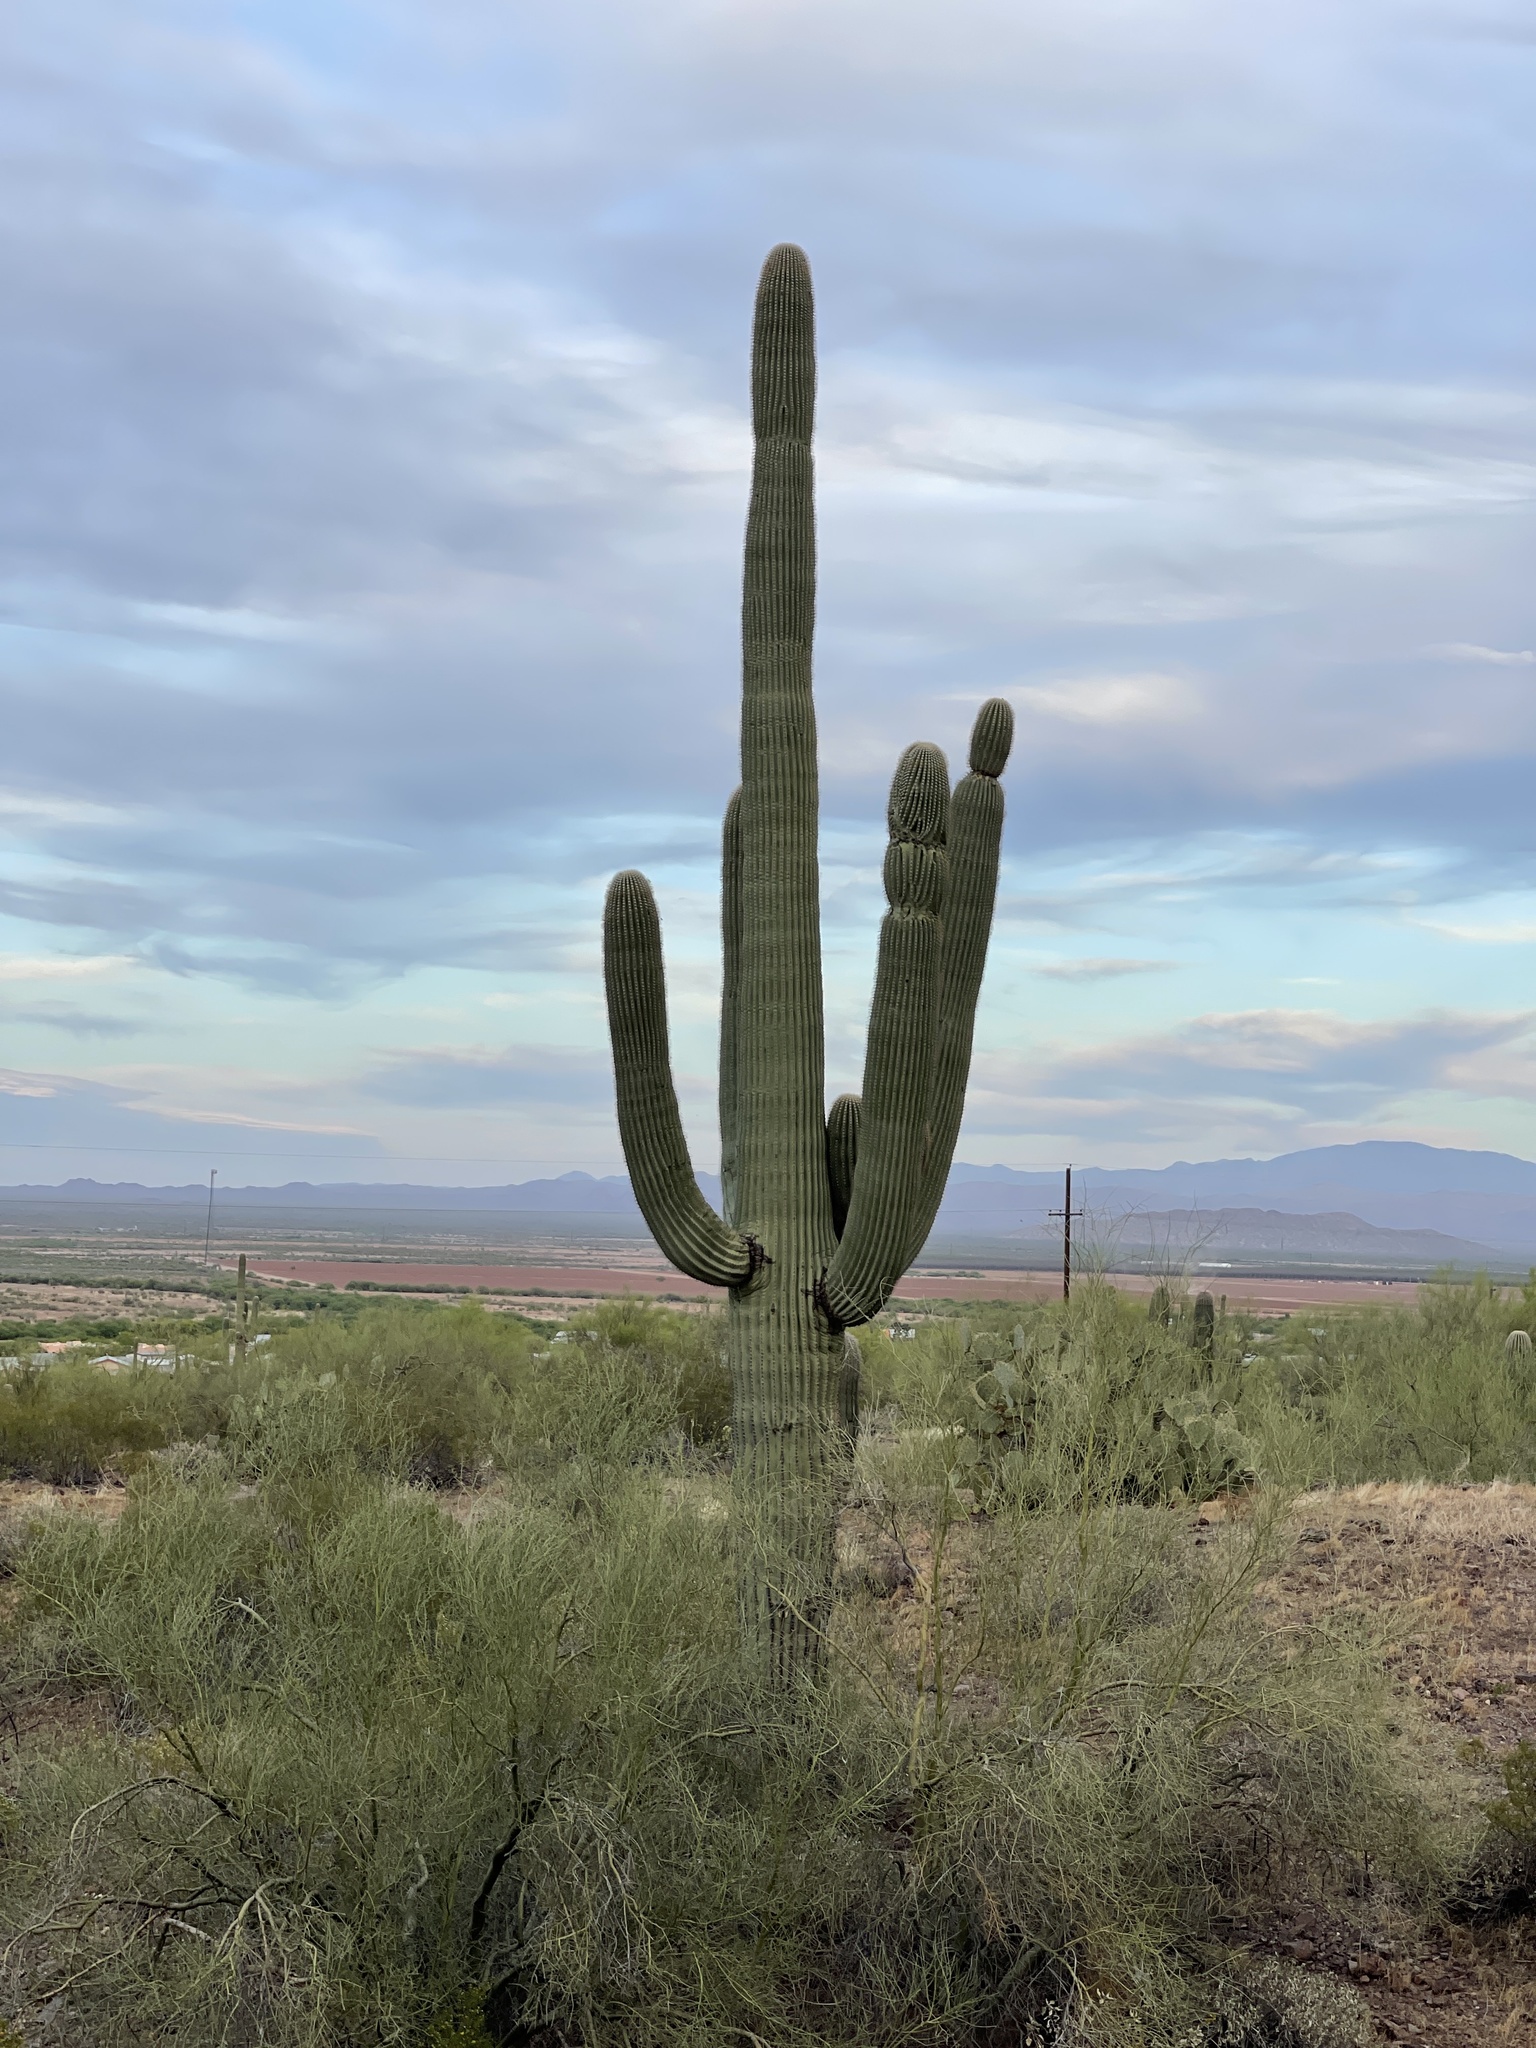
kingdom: Plantae
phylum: Tracheophyta
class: Magnoliopsida
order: Caryophyllales
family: Cactaceae
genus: Carnegiea
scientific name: Carnegiea gigantea
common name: Saguaro
